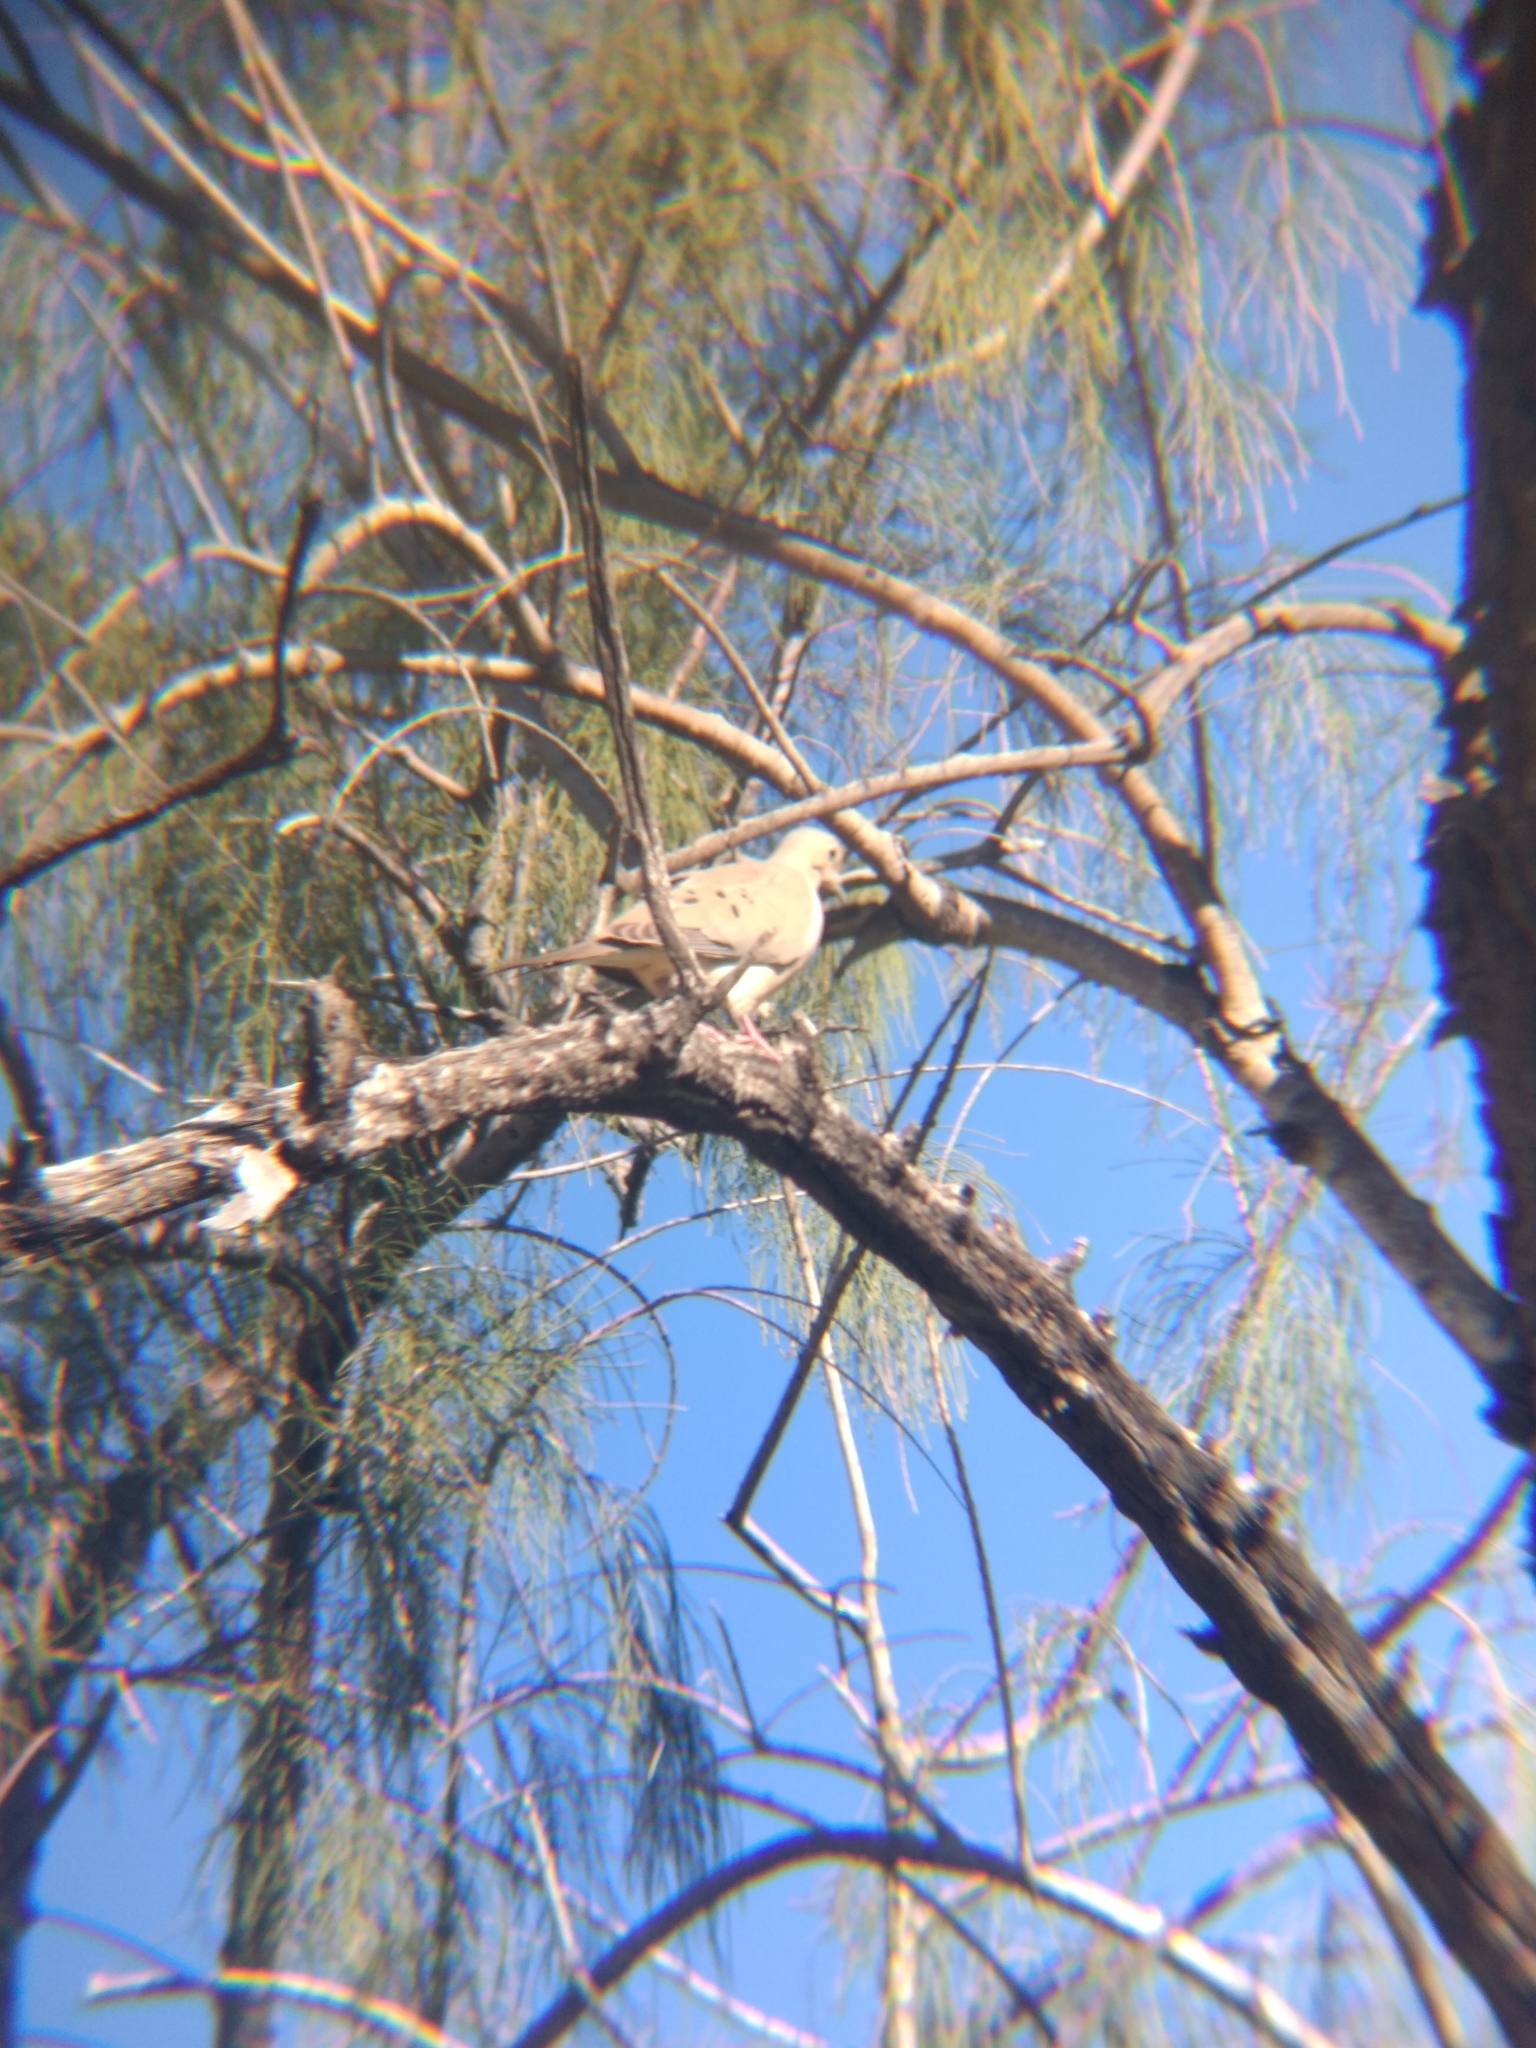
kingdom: Animalia
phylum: Chordata
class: Aves
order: Columbiformes
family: Columbidae
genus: Zenaida
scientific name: Zenaida macroura
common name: Mourning dove
